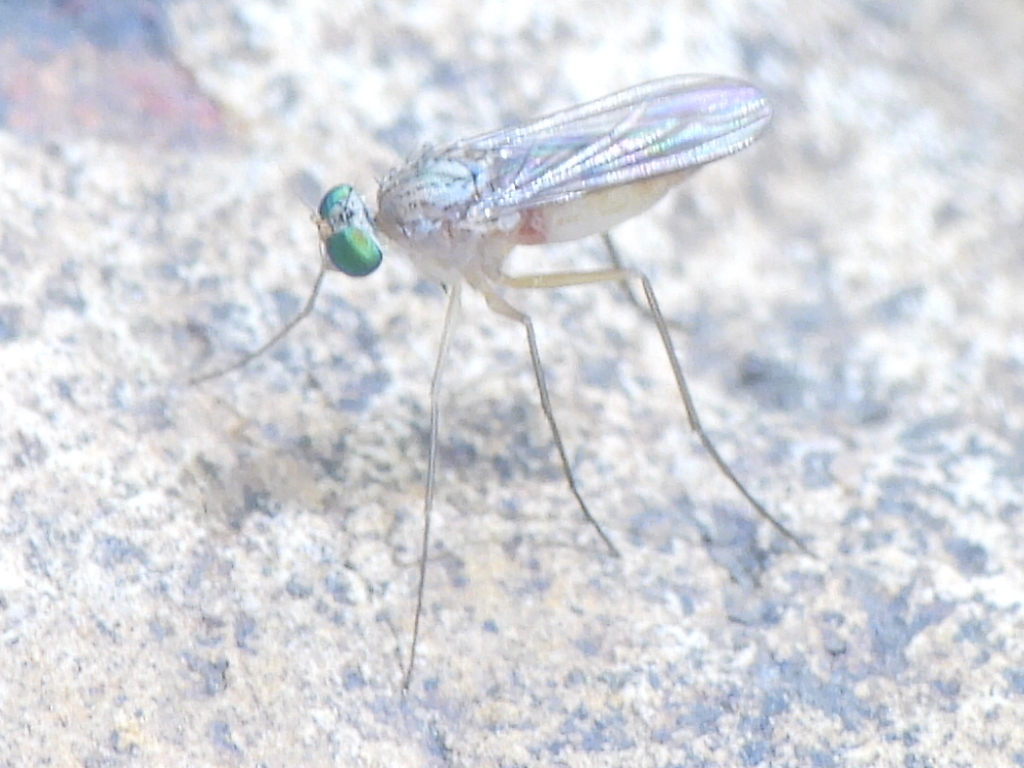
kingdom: Animalia
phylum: Arthropoda
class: Insecta
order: Diptera
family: Dolichopodidae
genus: Dactylomyia
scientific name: Dactylomyia lateralis
